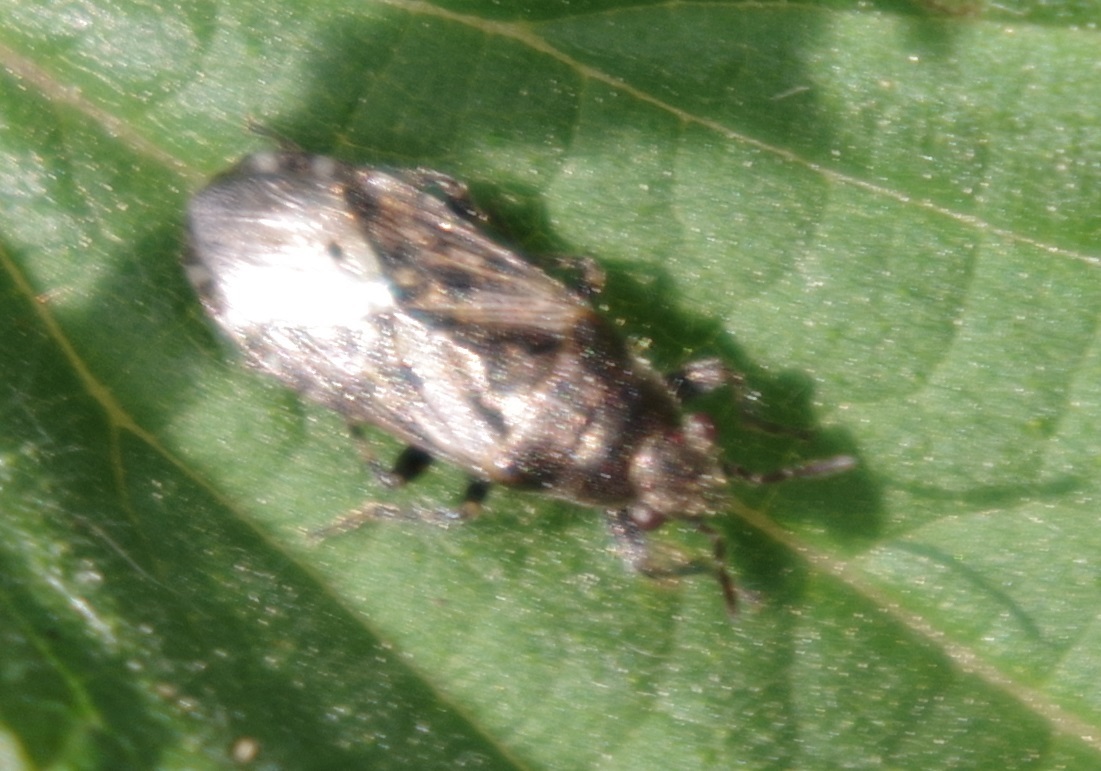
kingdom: Animalia
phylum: Arthropoda
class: Insecta
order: Hemiptera
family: Heterogastridae
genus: Heterogaster
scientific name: Heterogaster urticae
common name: Seed bug
